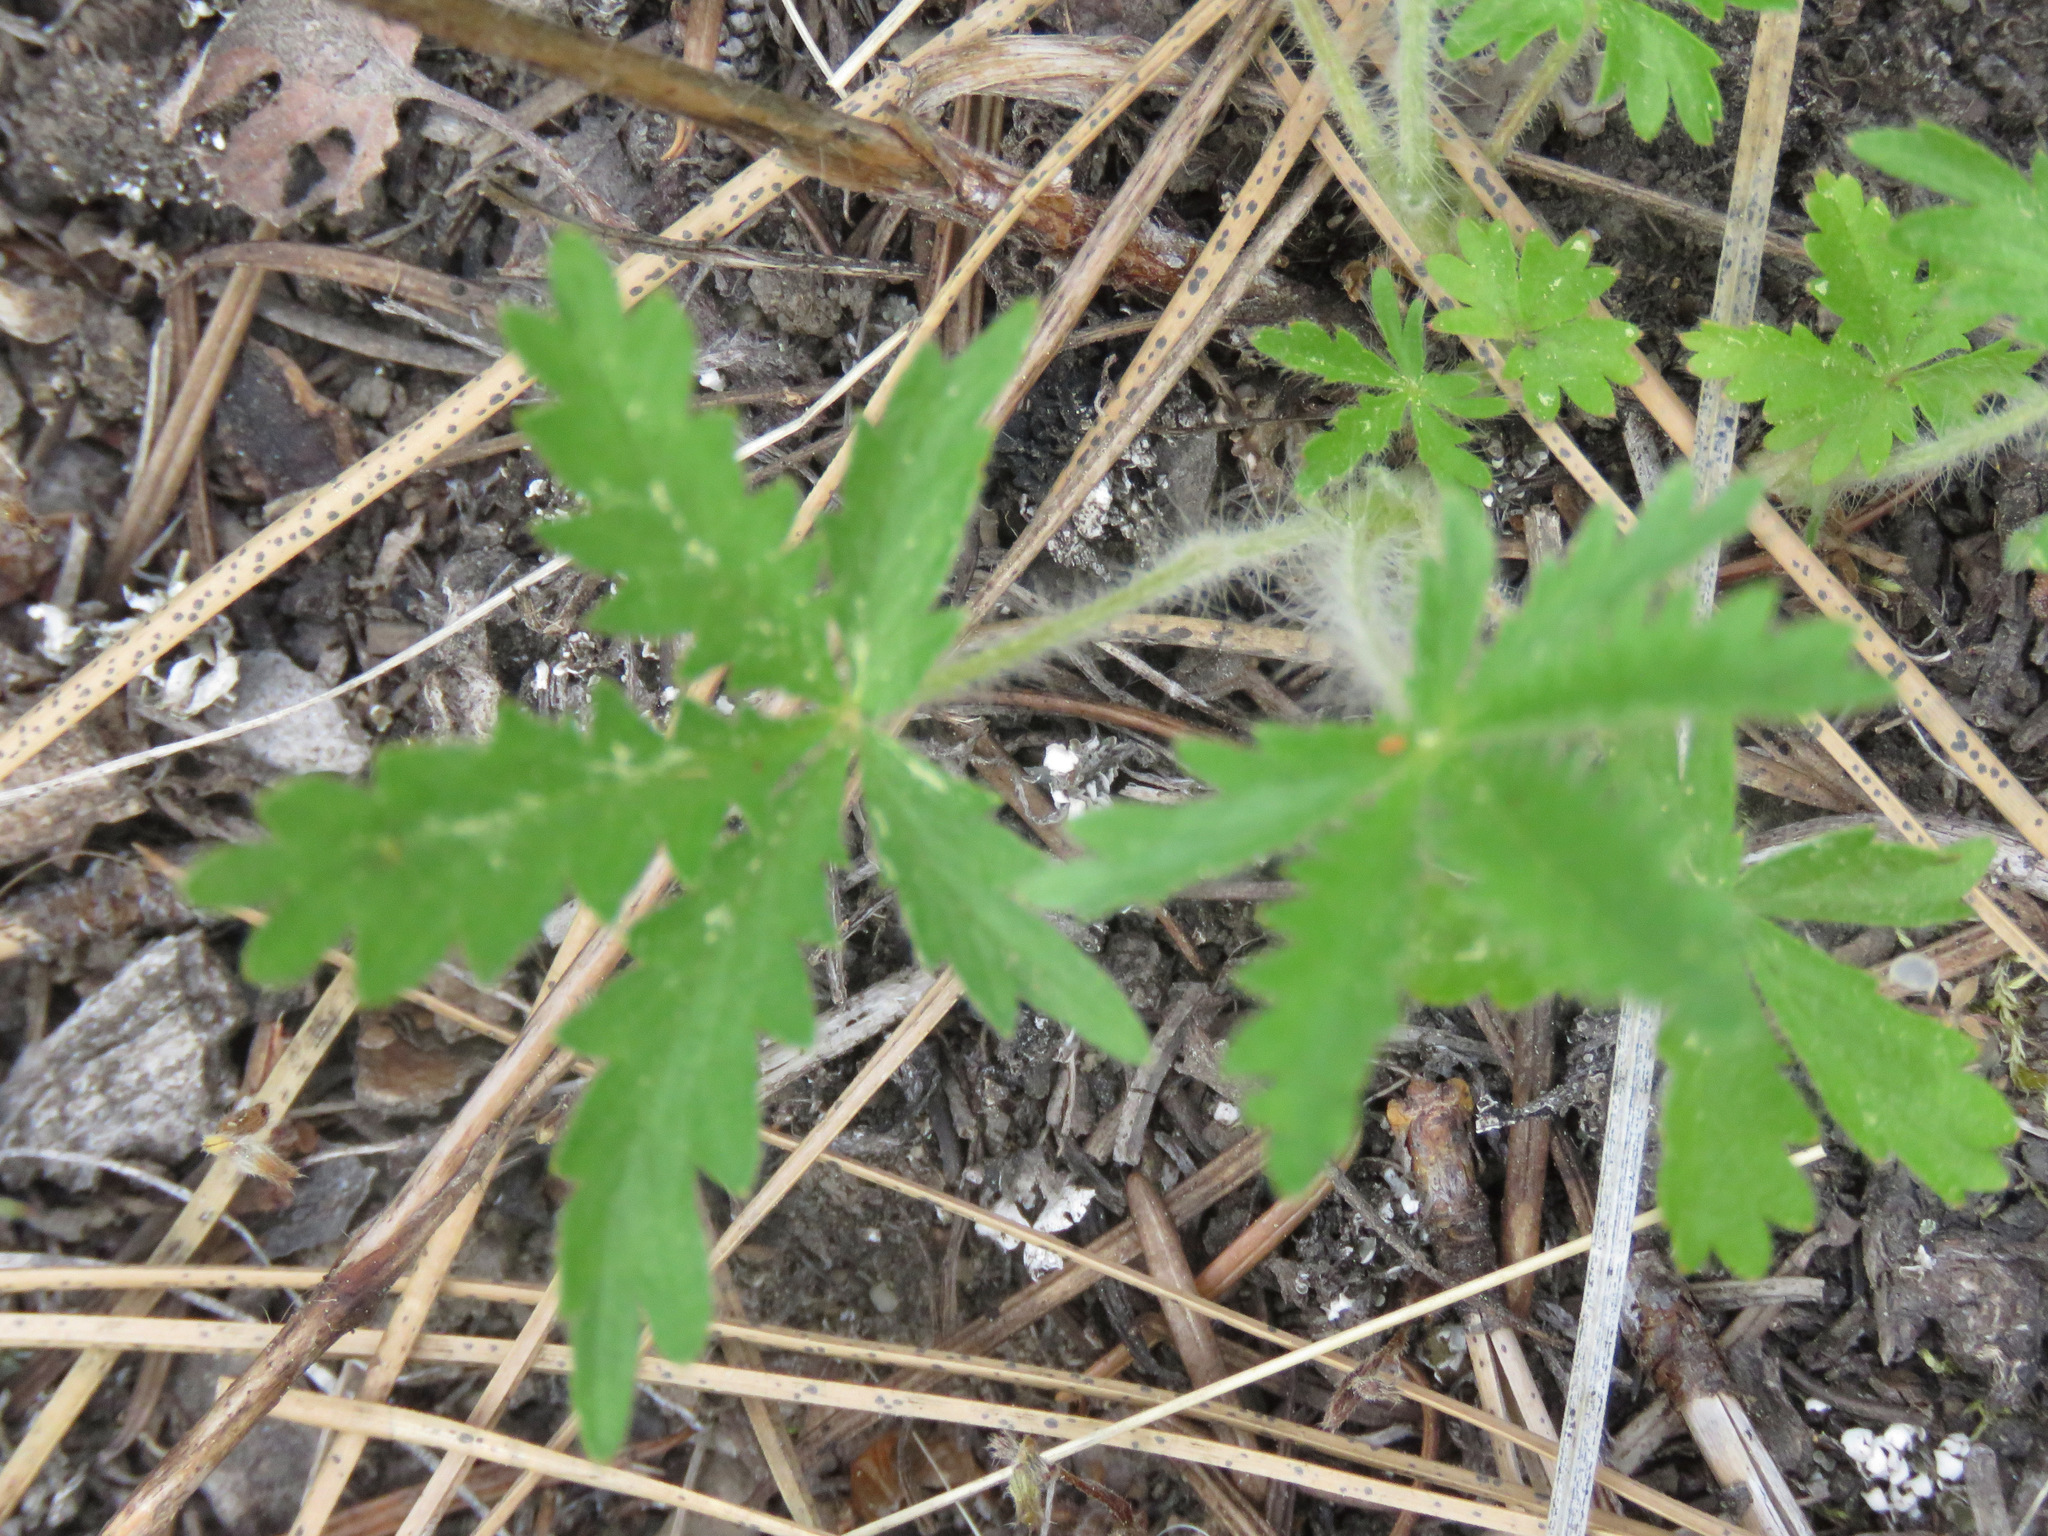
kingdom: Plantae
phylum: Tracheophyta
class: Magnoliopsida
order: Rosales
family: Rosaceae
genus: Potentilla
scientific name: Potentilla recta
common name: Sulphur cinquefoil
